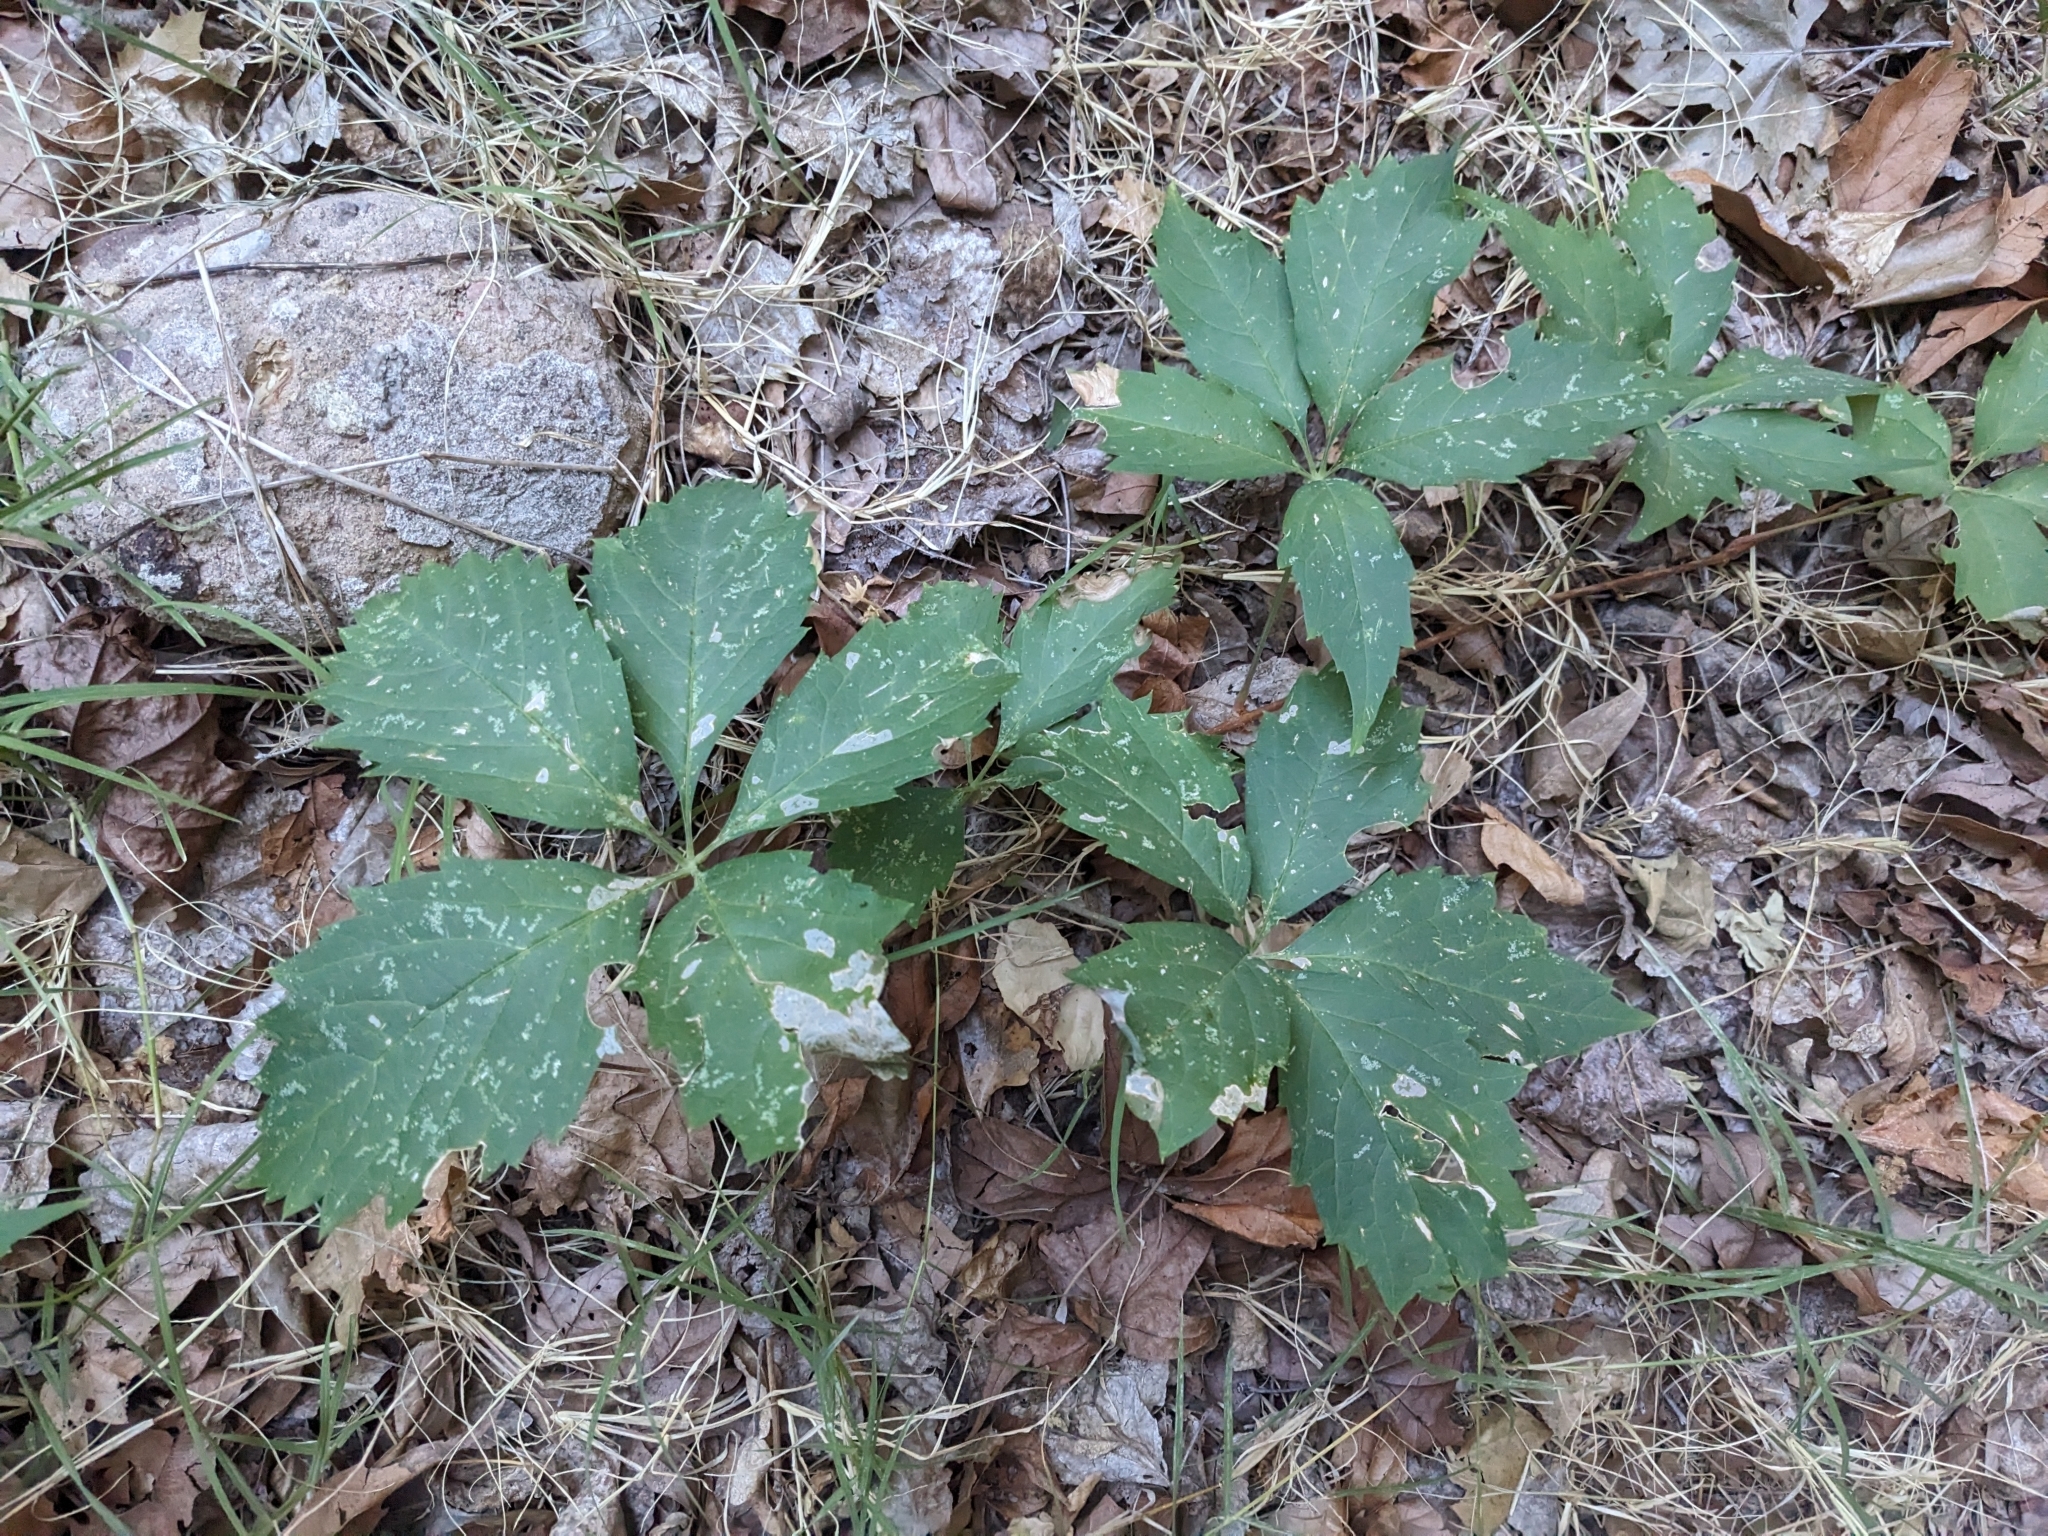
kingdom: Plantae
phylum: Tracheophyta
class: Magnoliopsida
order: Vitales
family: Vitaceae
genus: Parthenocissus
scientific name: Parthenocissus inserta
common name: False virginia-creeper
